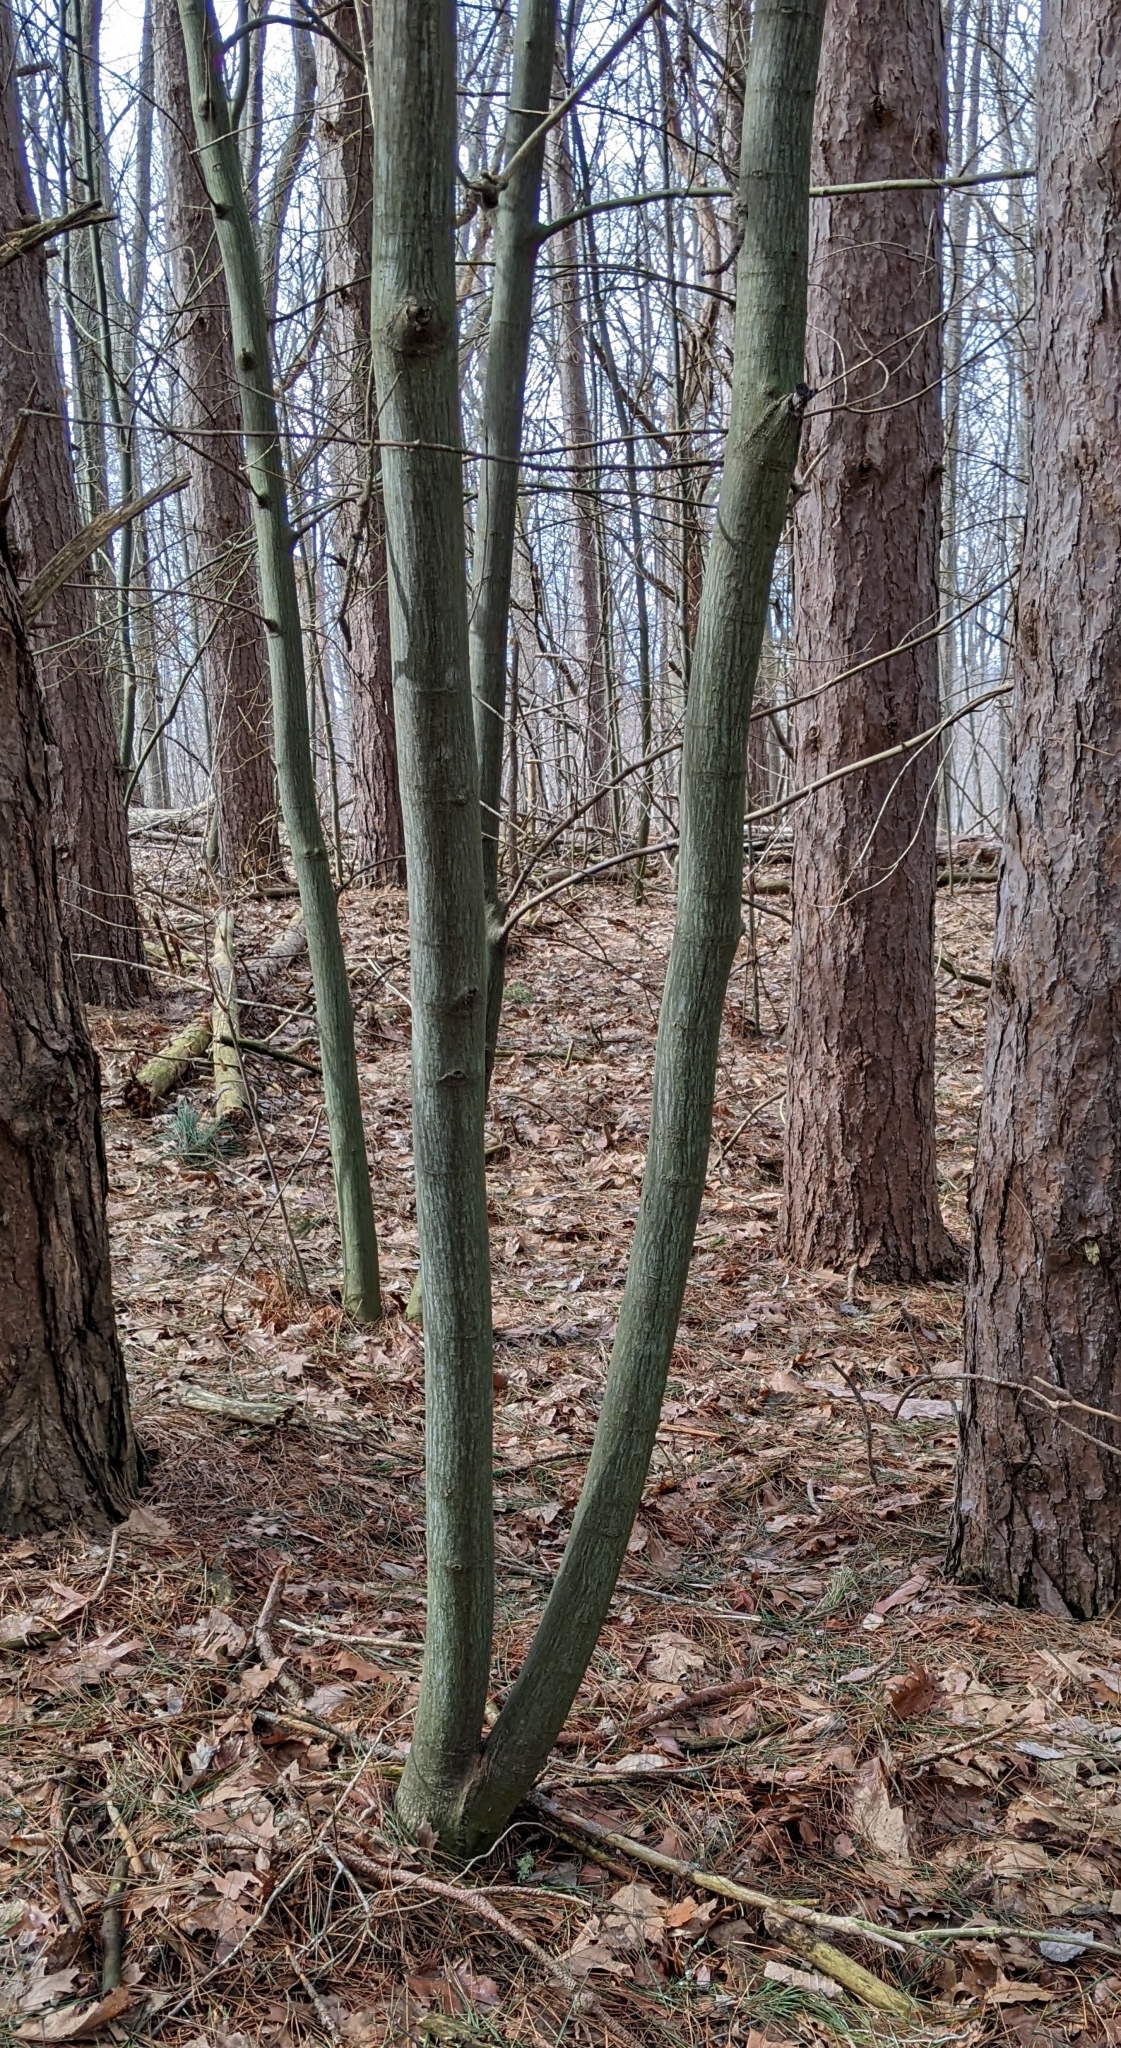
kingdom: Plantae
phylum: Tracheophyta
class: Magnoliopsida
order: Sapindales
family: Sapindaceae
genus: Acer
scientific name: Acer pensylvanicum
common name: Moosewood
